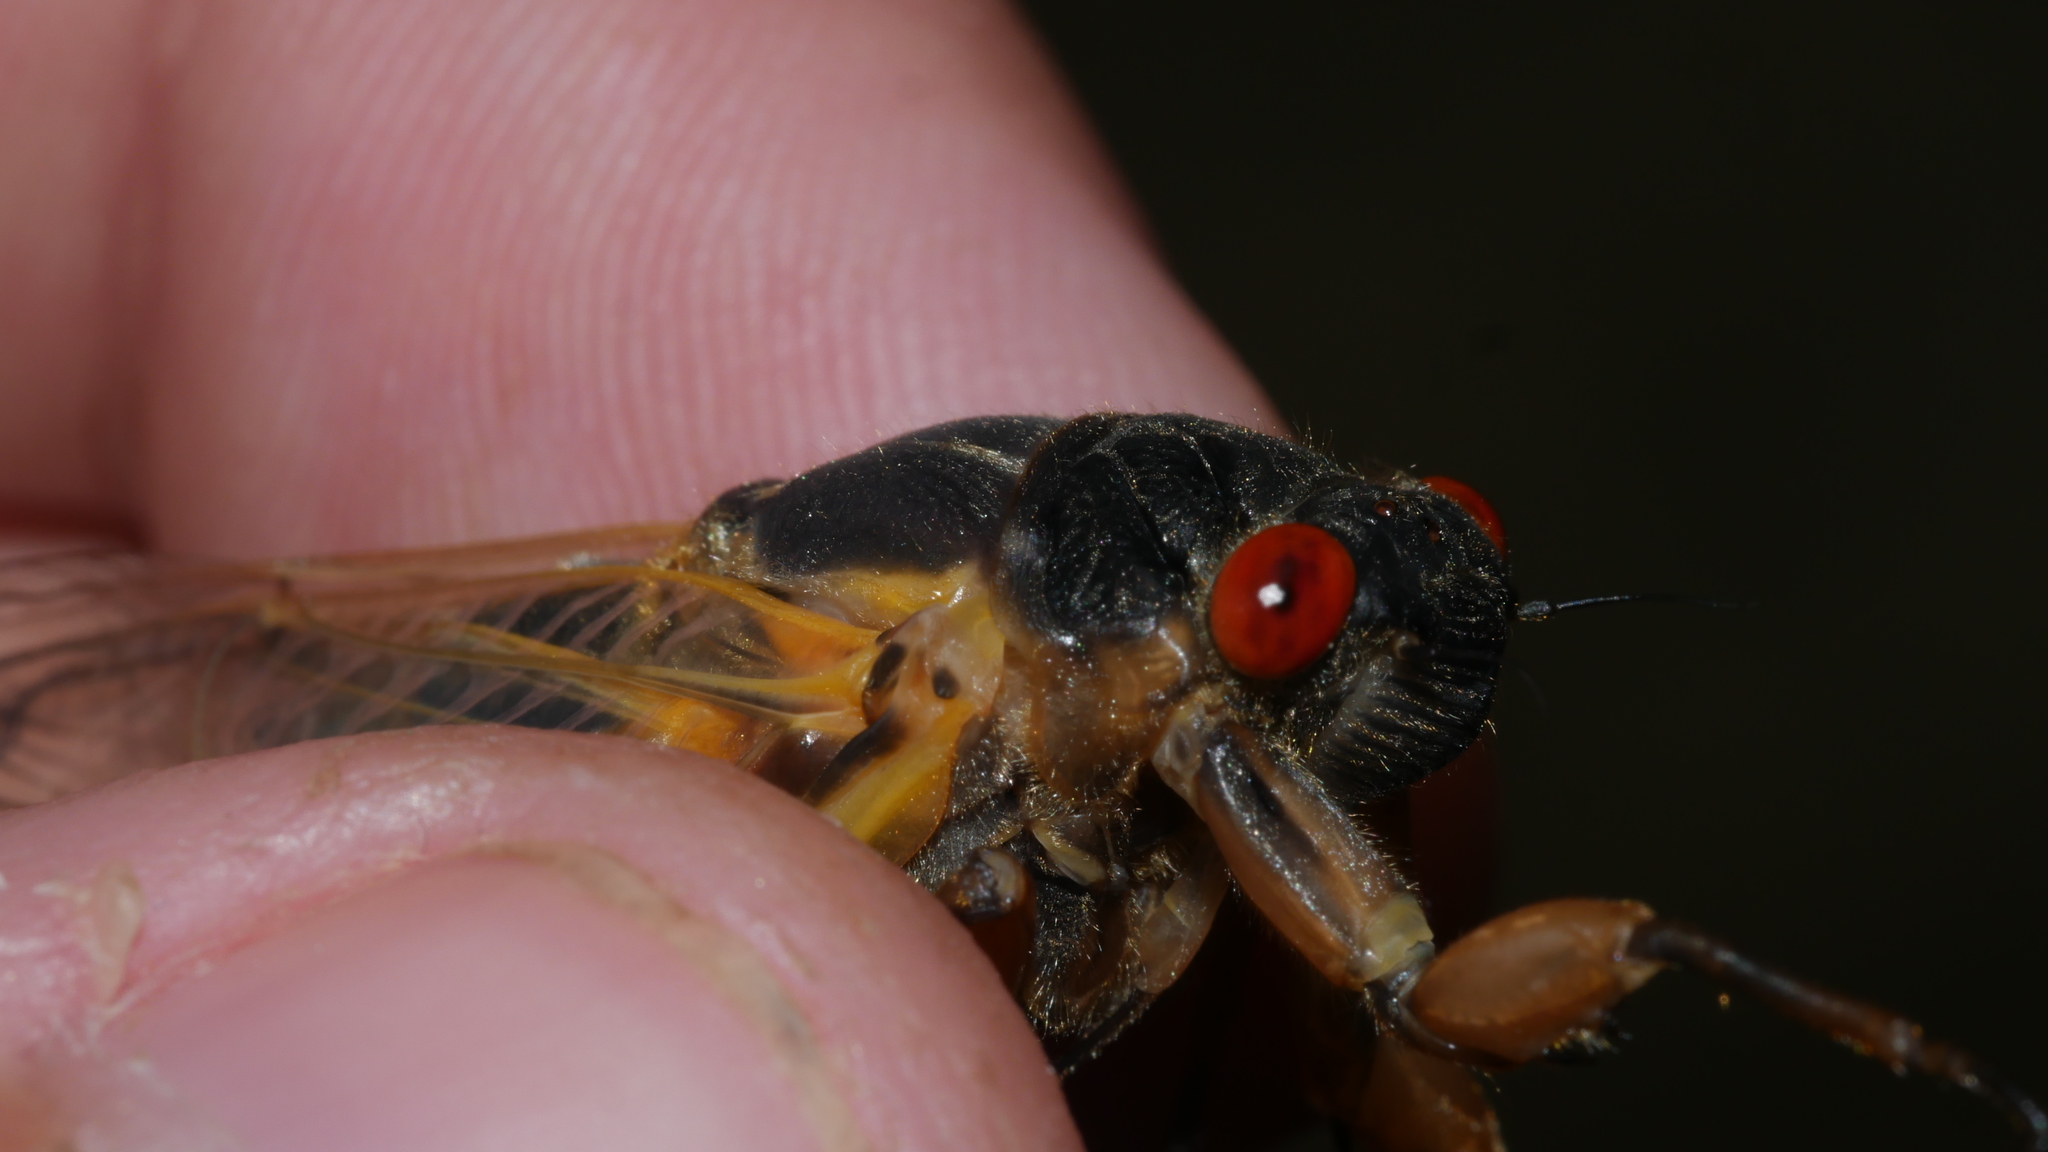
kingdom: Animalia
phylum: Arthropoda
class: Insecta
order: Hemiptera
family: Cicadidae
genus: Magicicada
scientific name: Magicicada septendecim
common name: Periodical cicada
